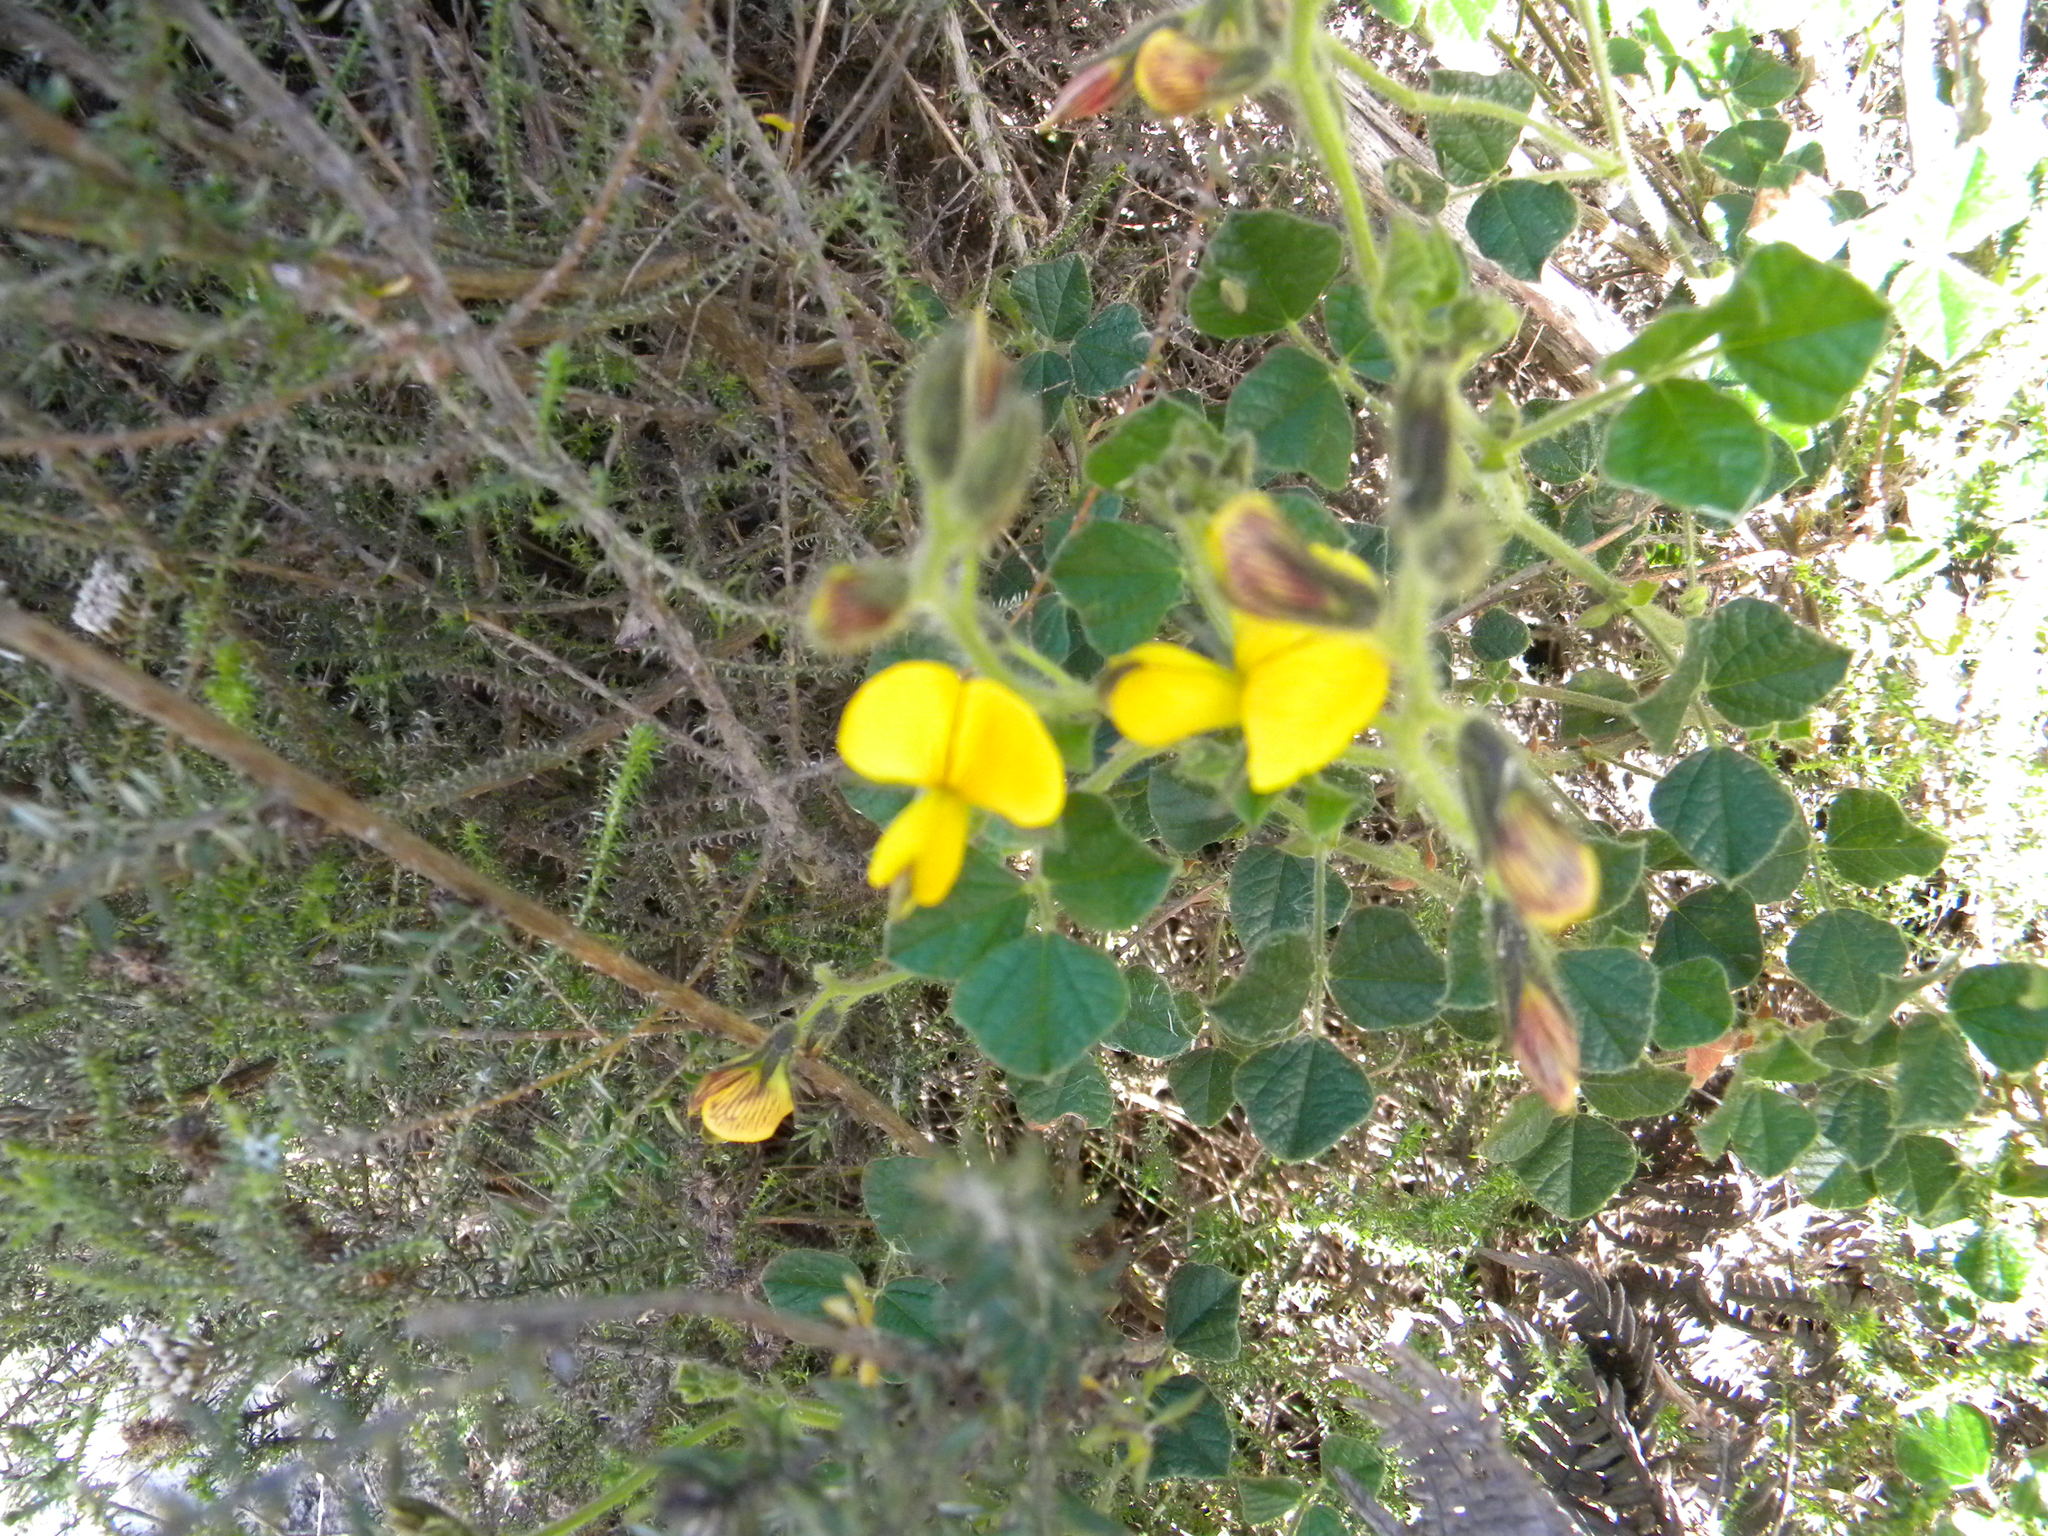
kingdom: Plantae
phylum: Tracheophyta
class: Magnoliopsida
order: Fabales
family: Fabaceae
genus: Bolusafra
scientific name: Bolusafra bituminosa
